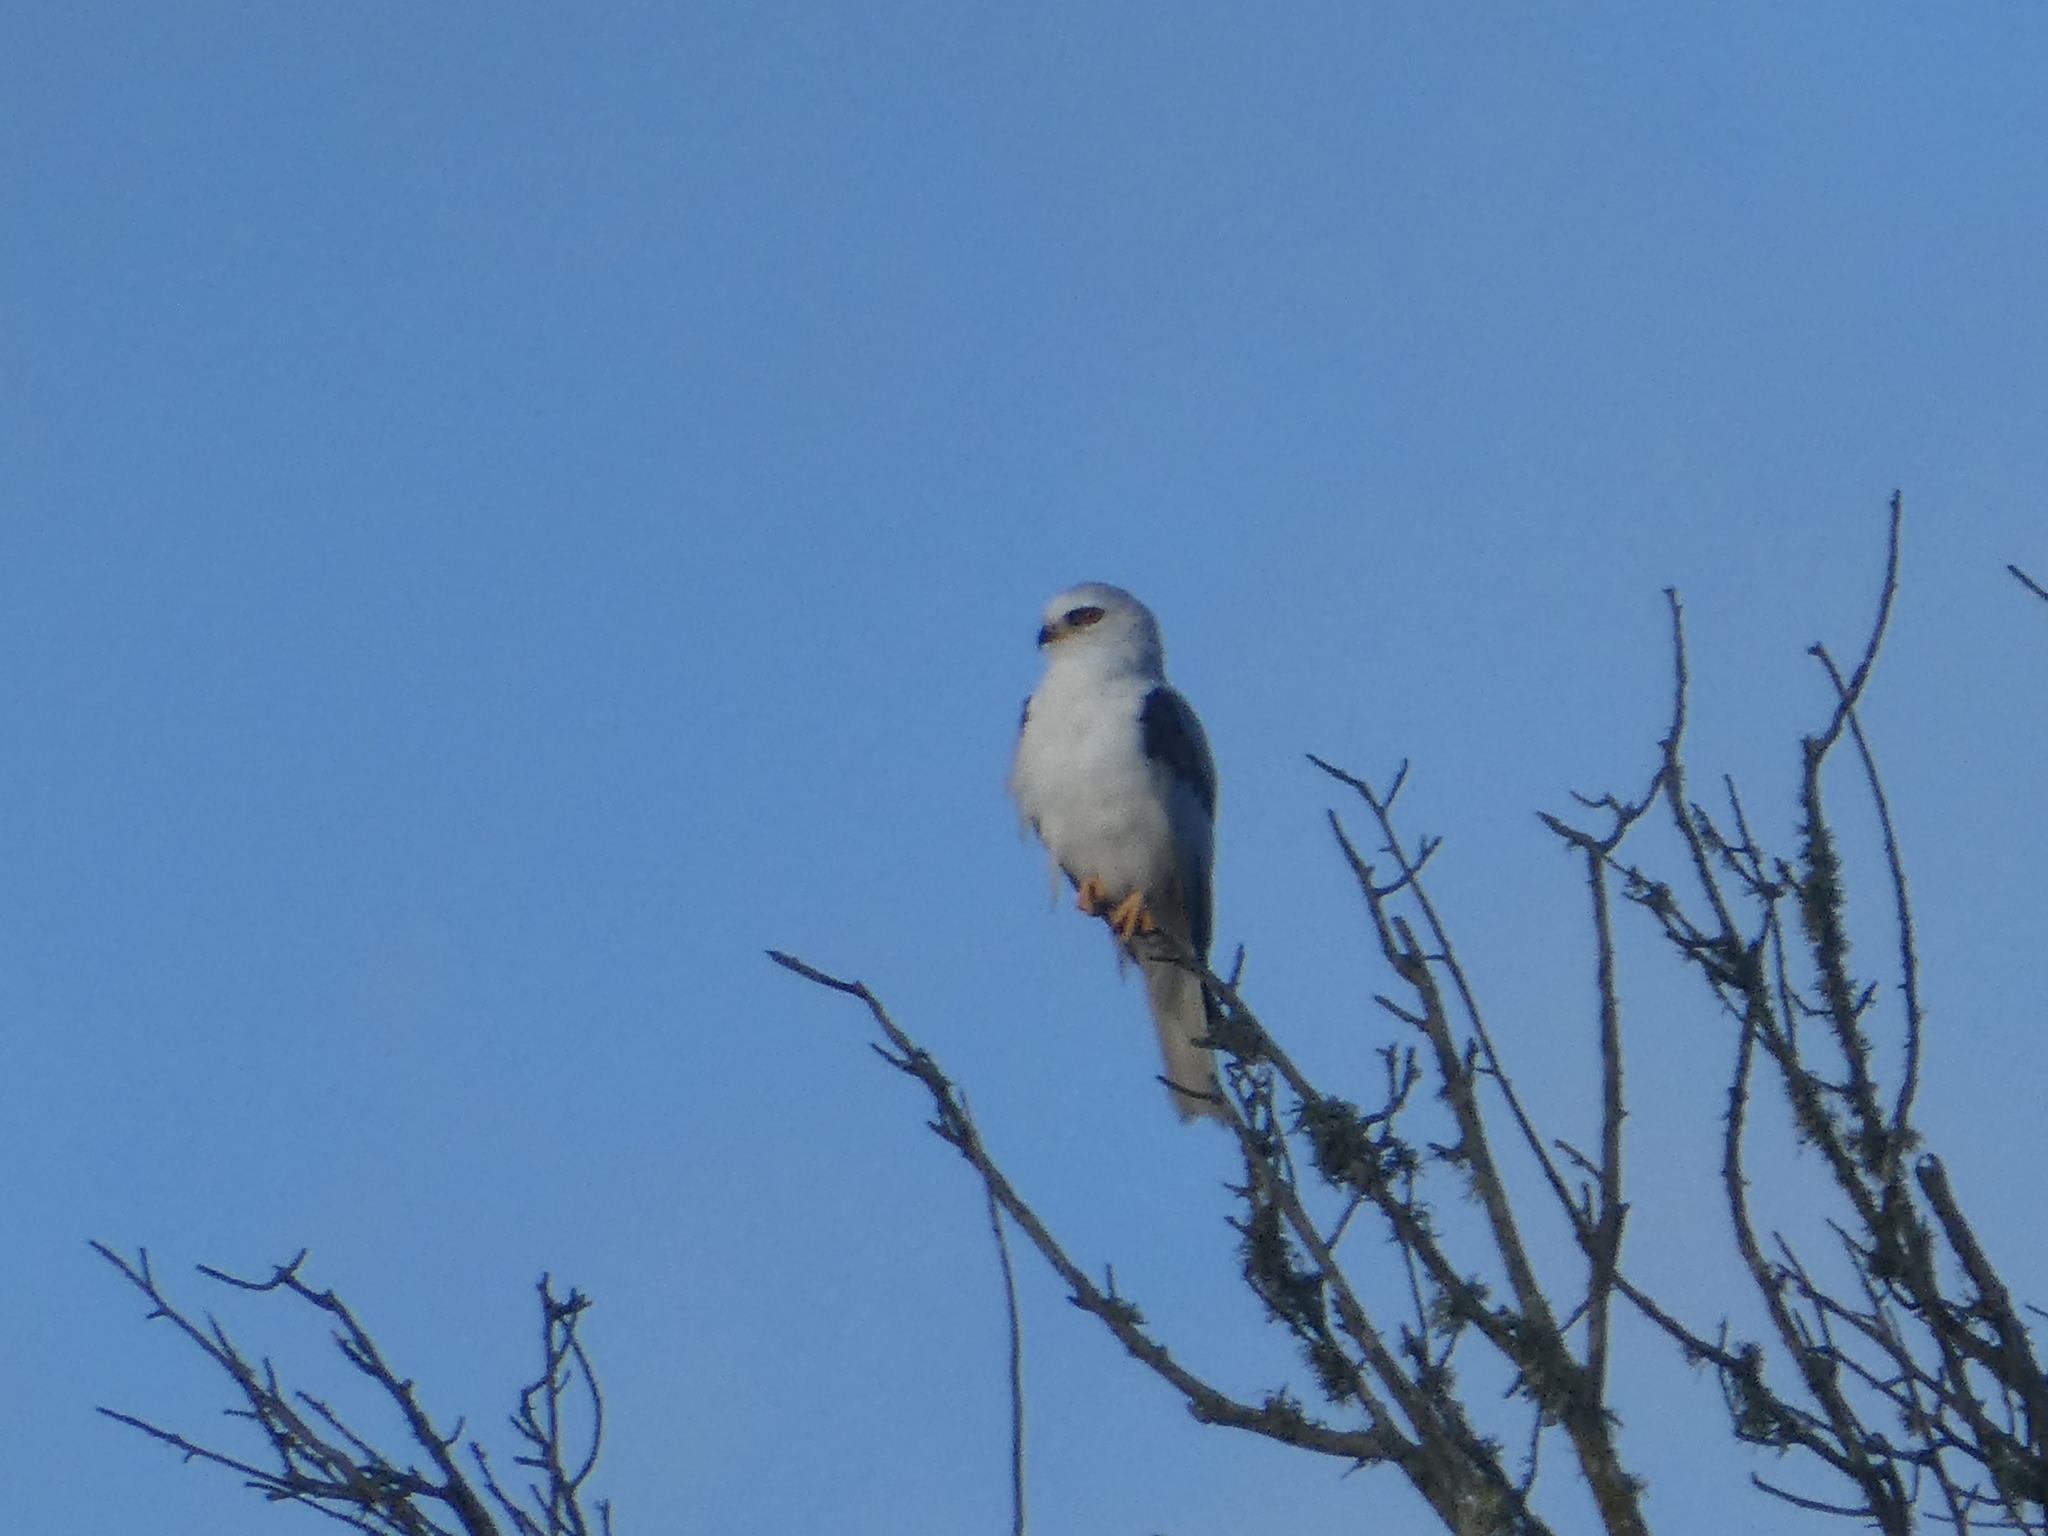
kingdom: Animalia
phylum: Chordata
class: Aves
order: Accipitriformes
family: Accipitridae
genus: Elanus
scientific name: Elanus leucurus
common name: White-tailed kite
